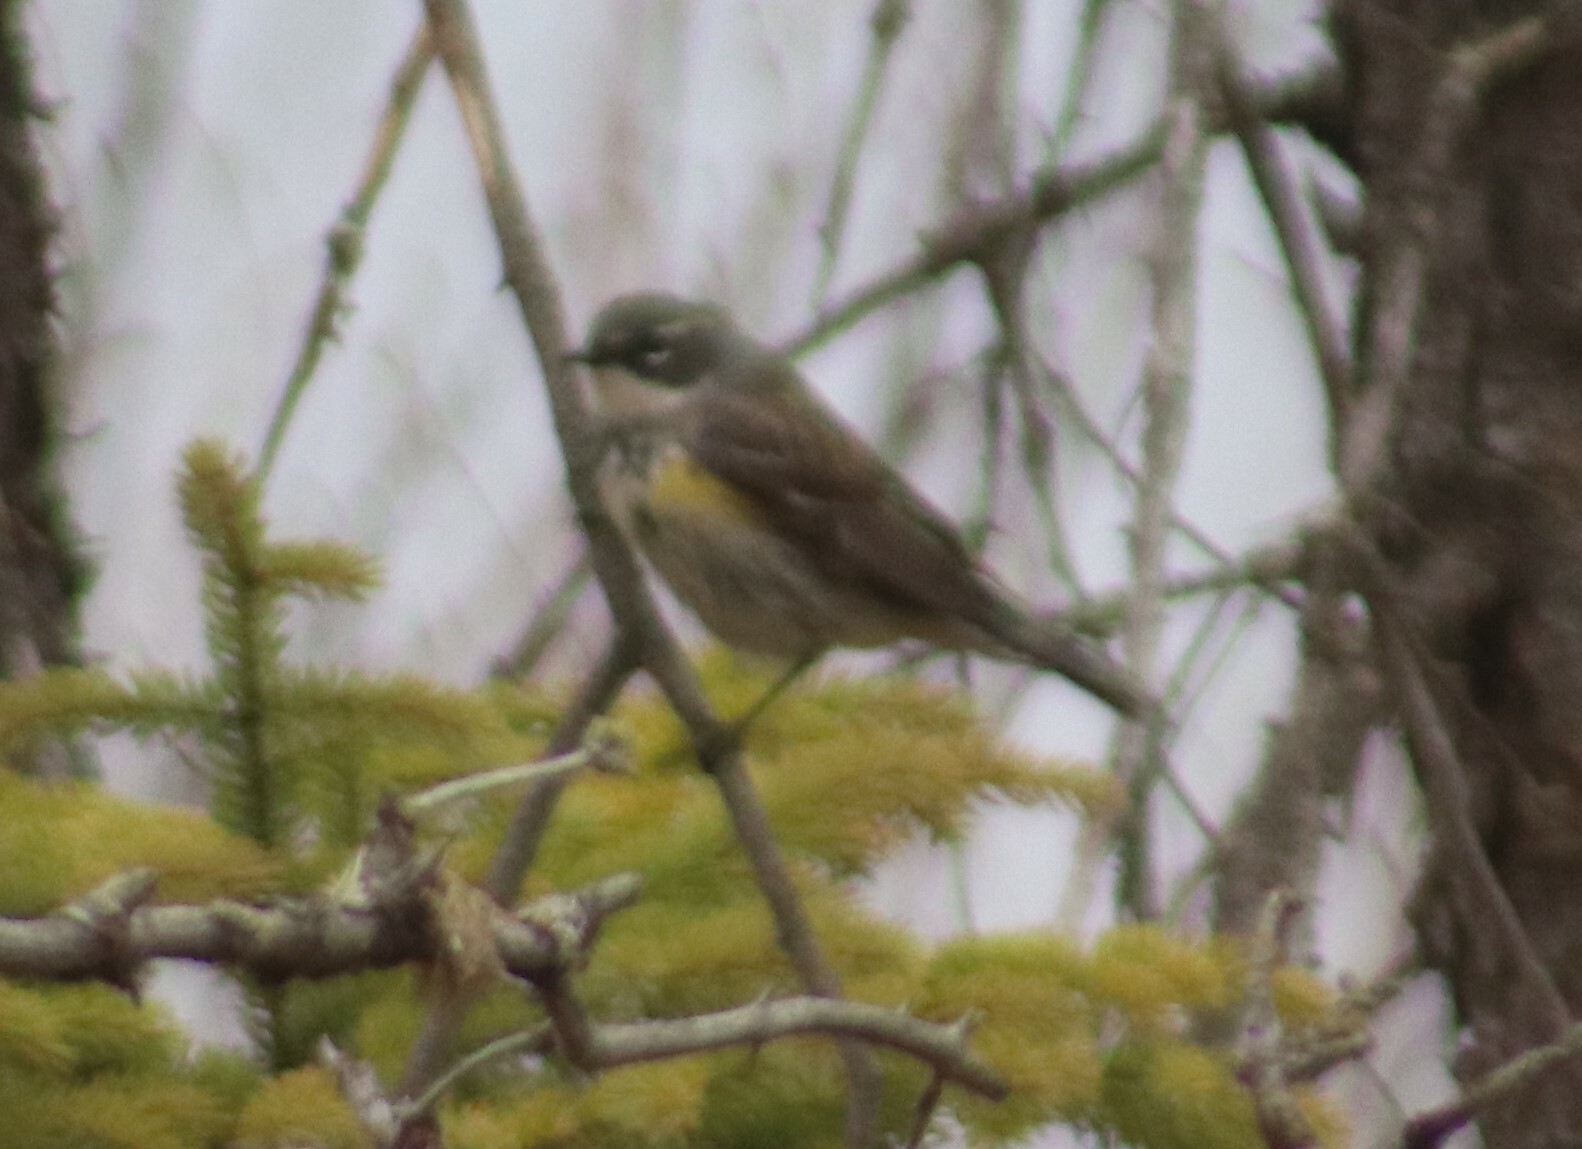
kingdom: Animalia
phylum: Chordata
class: Aves
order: Passeriformes
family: Parulidae
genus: Setophaga
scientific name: Setophaga coronata
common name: Myrtle warbler
